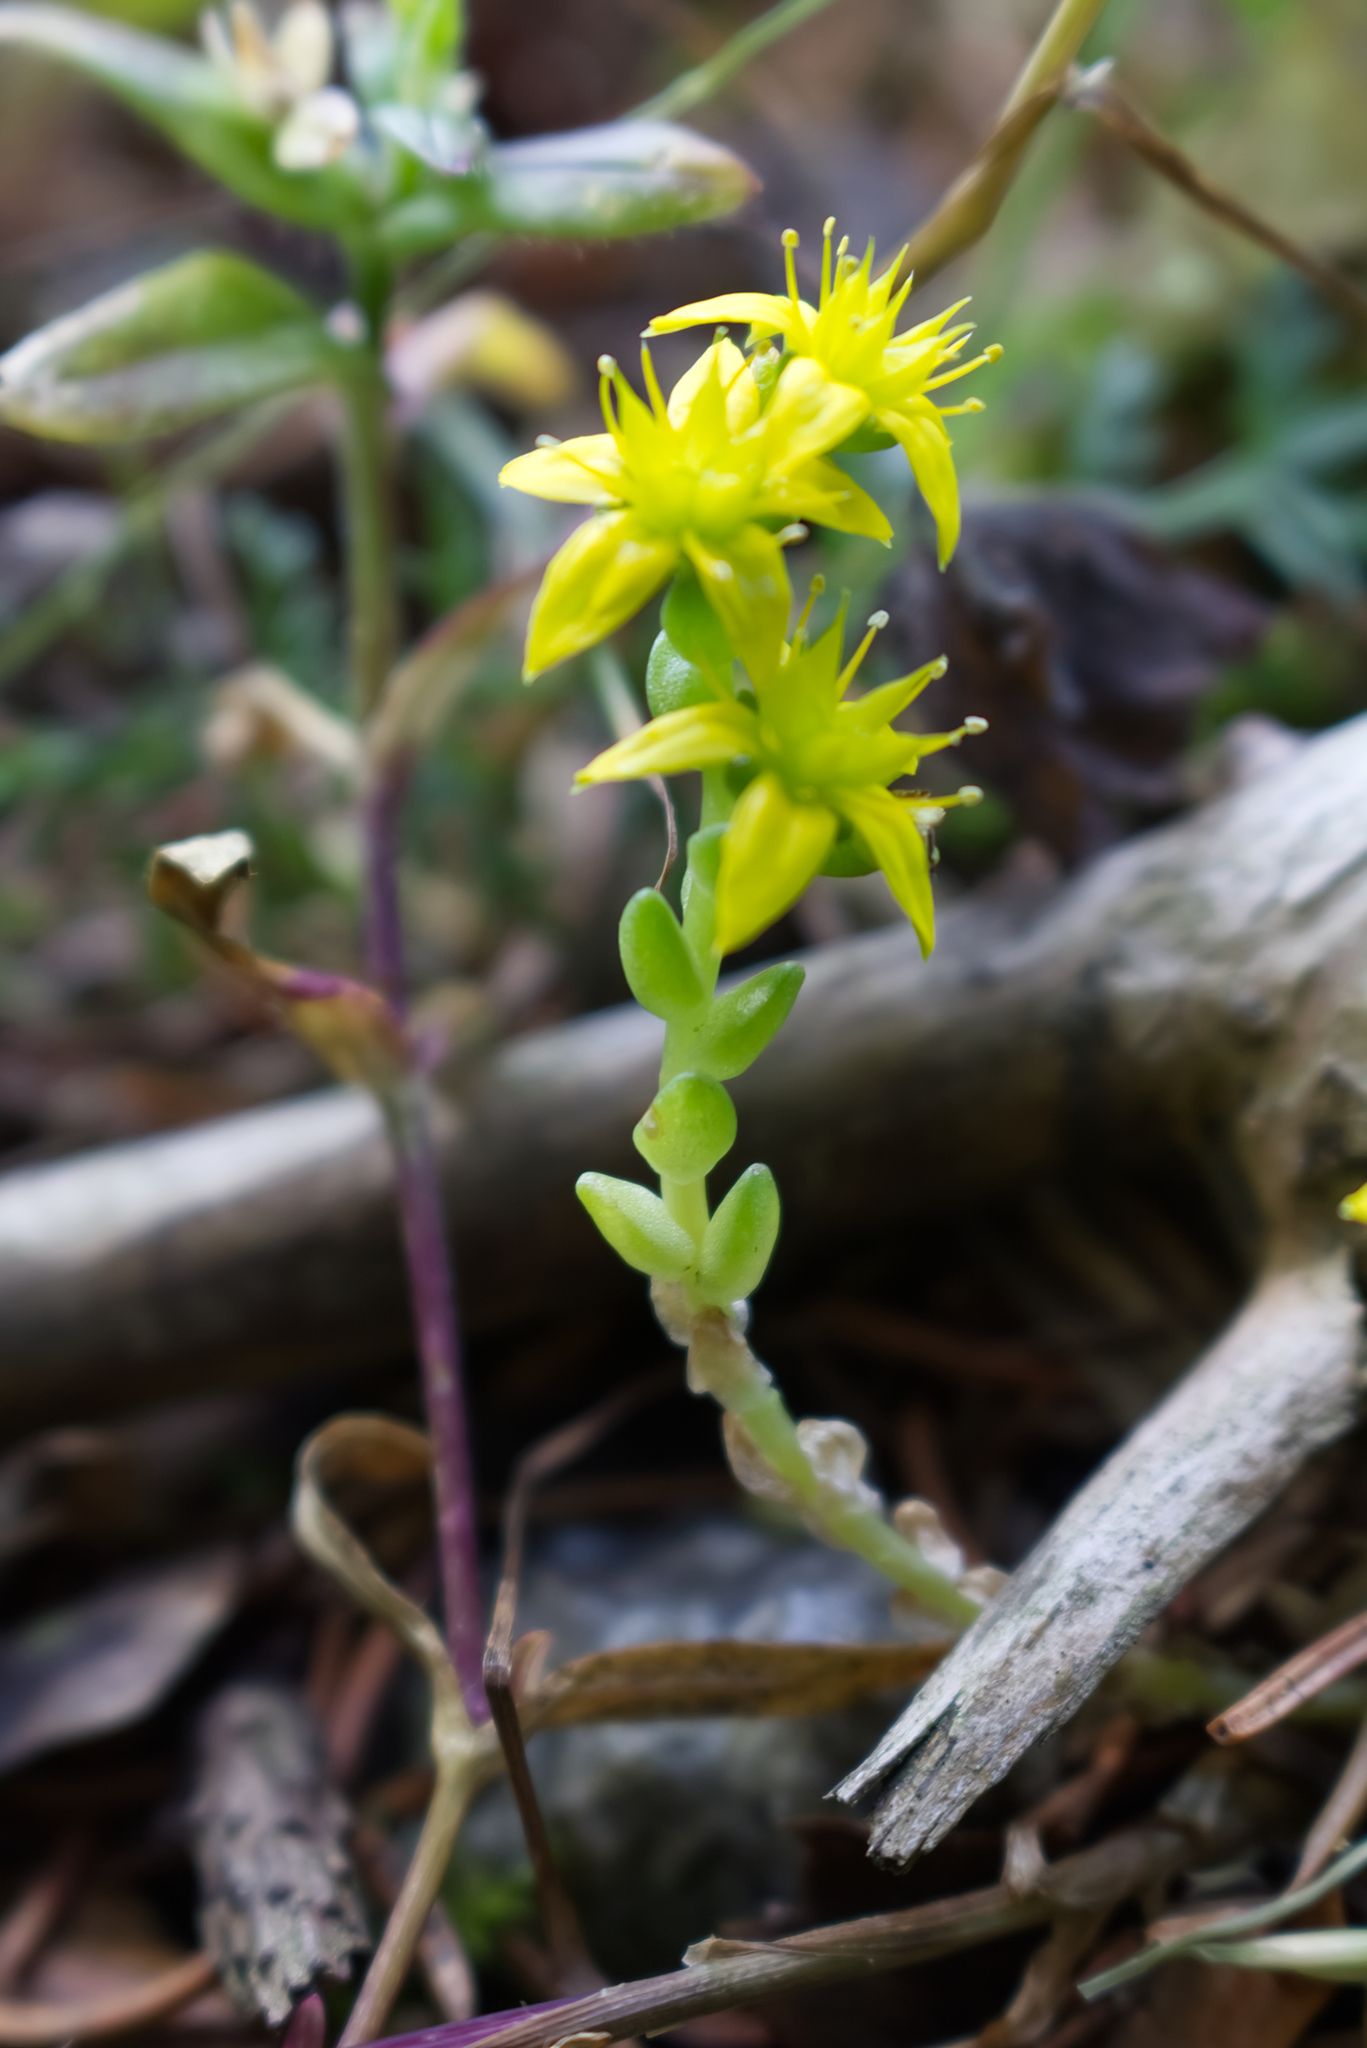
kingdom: Plantae
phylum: Tracheophyta
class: Magnoliopsida
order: Saxifragales
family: Crassulaceae
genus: Sedum
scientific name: Sedum acre
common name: Biting stonecrop
